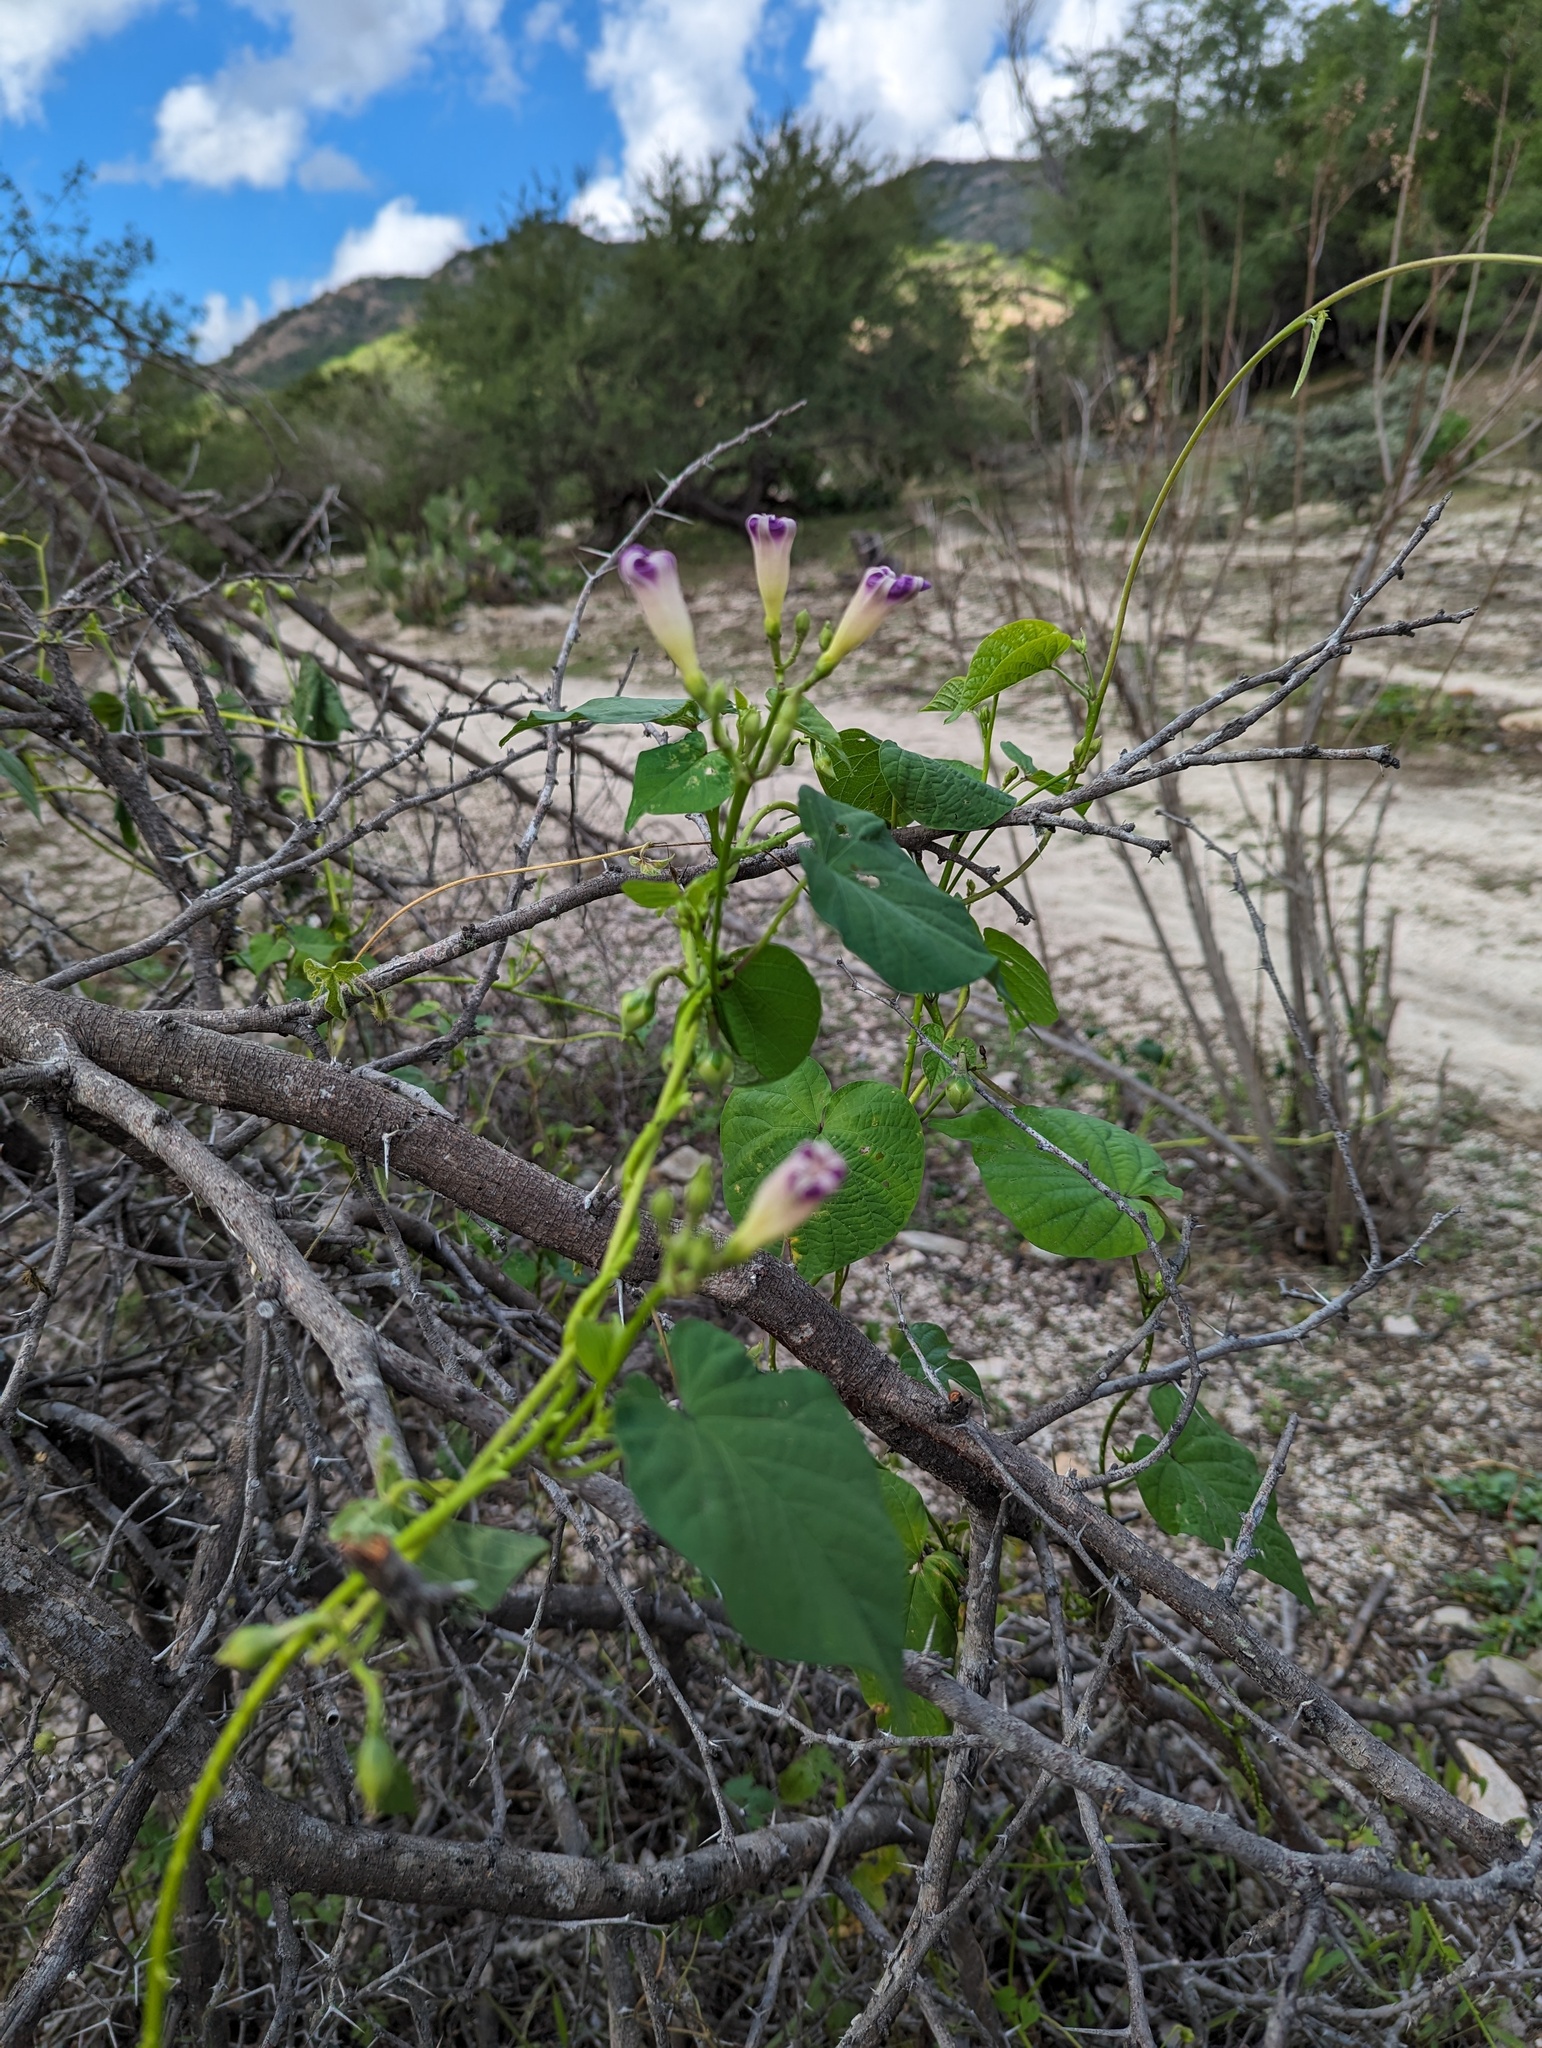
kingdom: Plantae
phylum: Tracheophyta
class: Magnoliopsida
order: Solanales
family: Convolvulaceae
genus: Ipomoea
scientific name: Ipomoea parasitica
